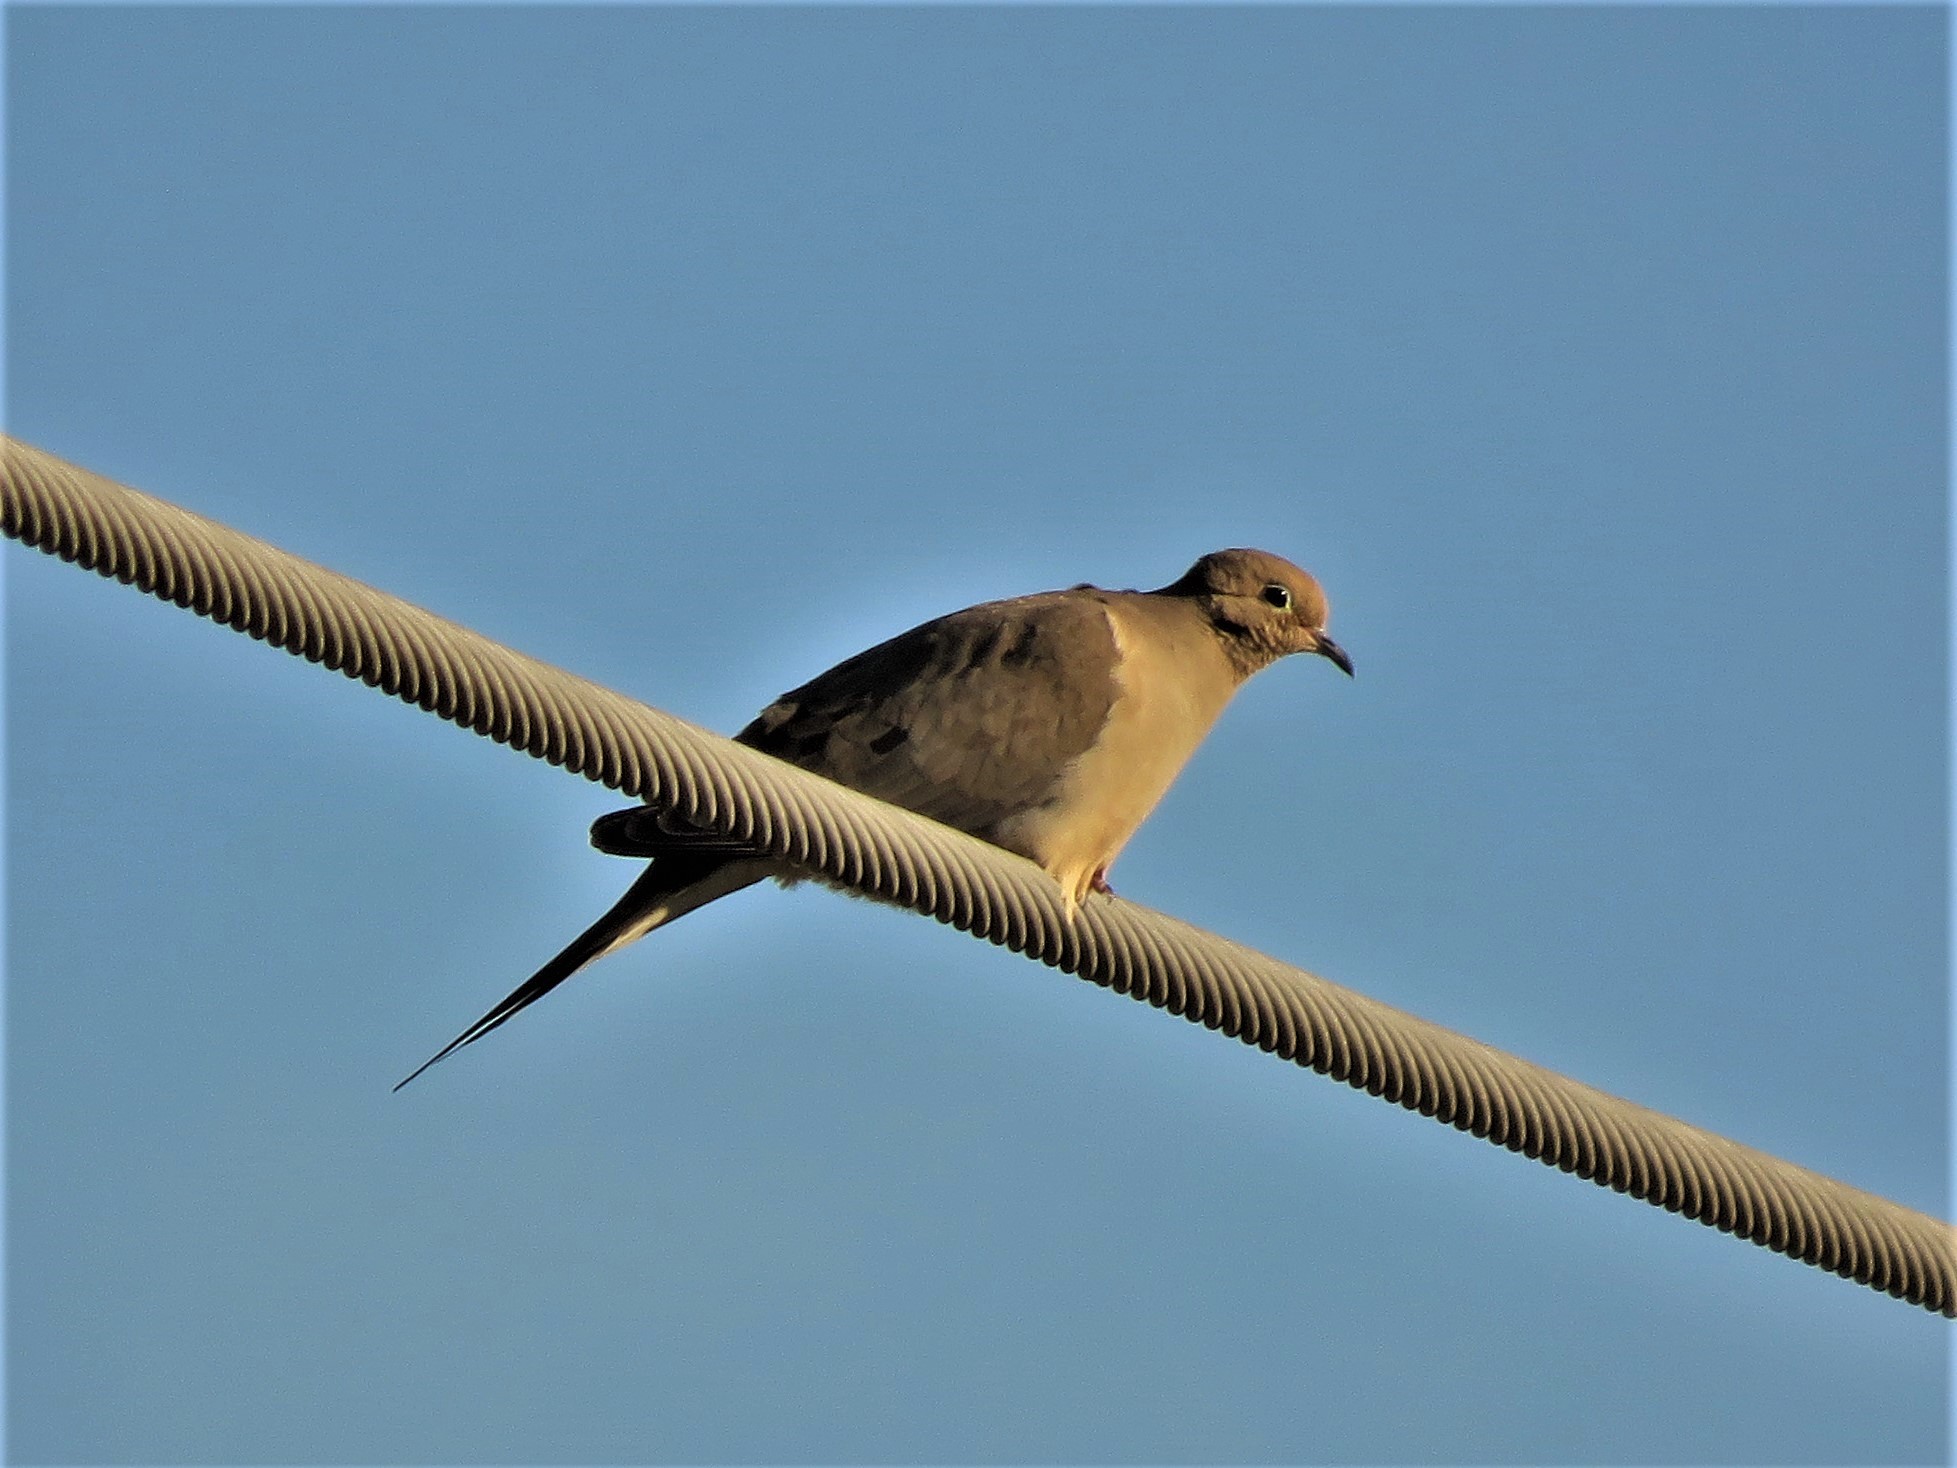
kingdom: Animalia
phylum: Chordata
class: Aves
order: Columbiformes
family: Columbidae
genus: Zenaida
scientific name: Zenaida macroura
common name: Mourning dove
